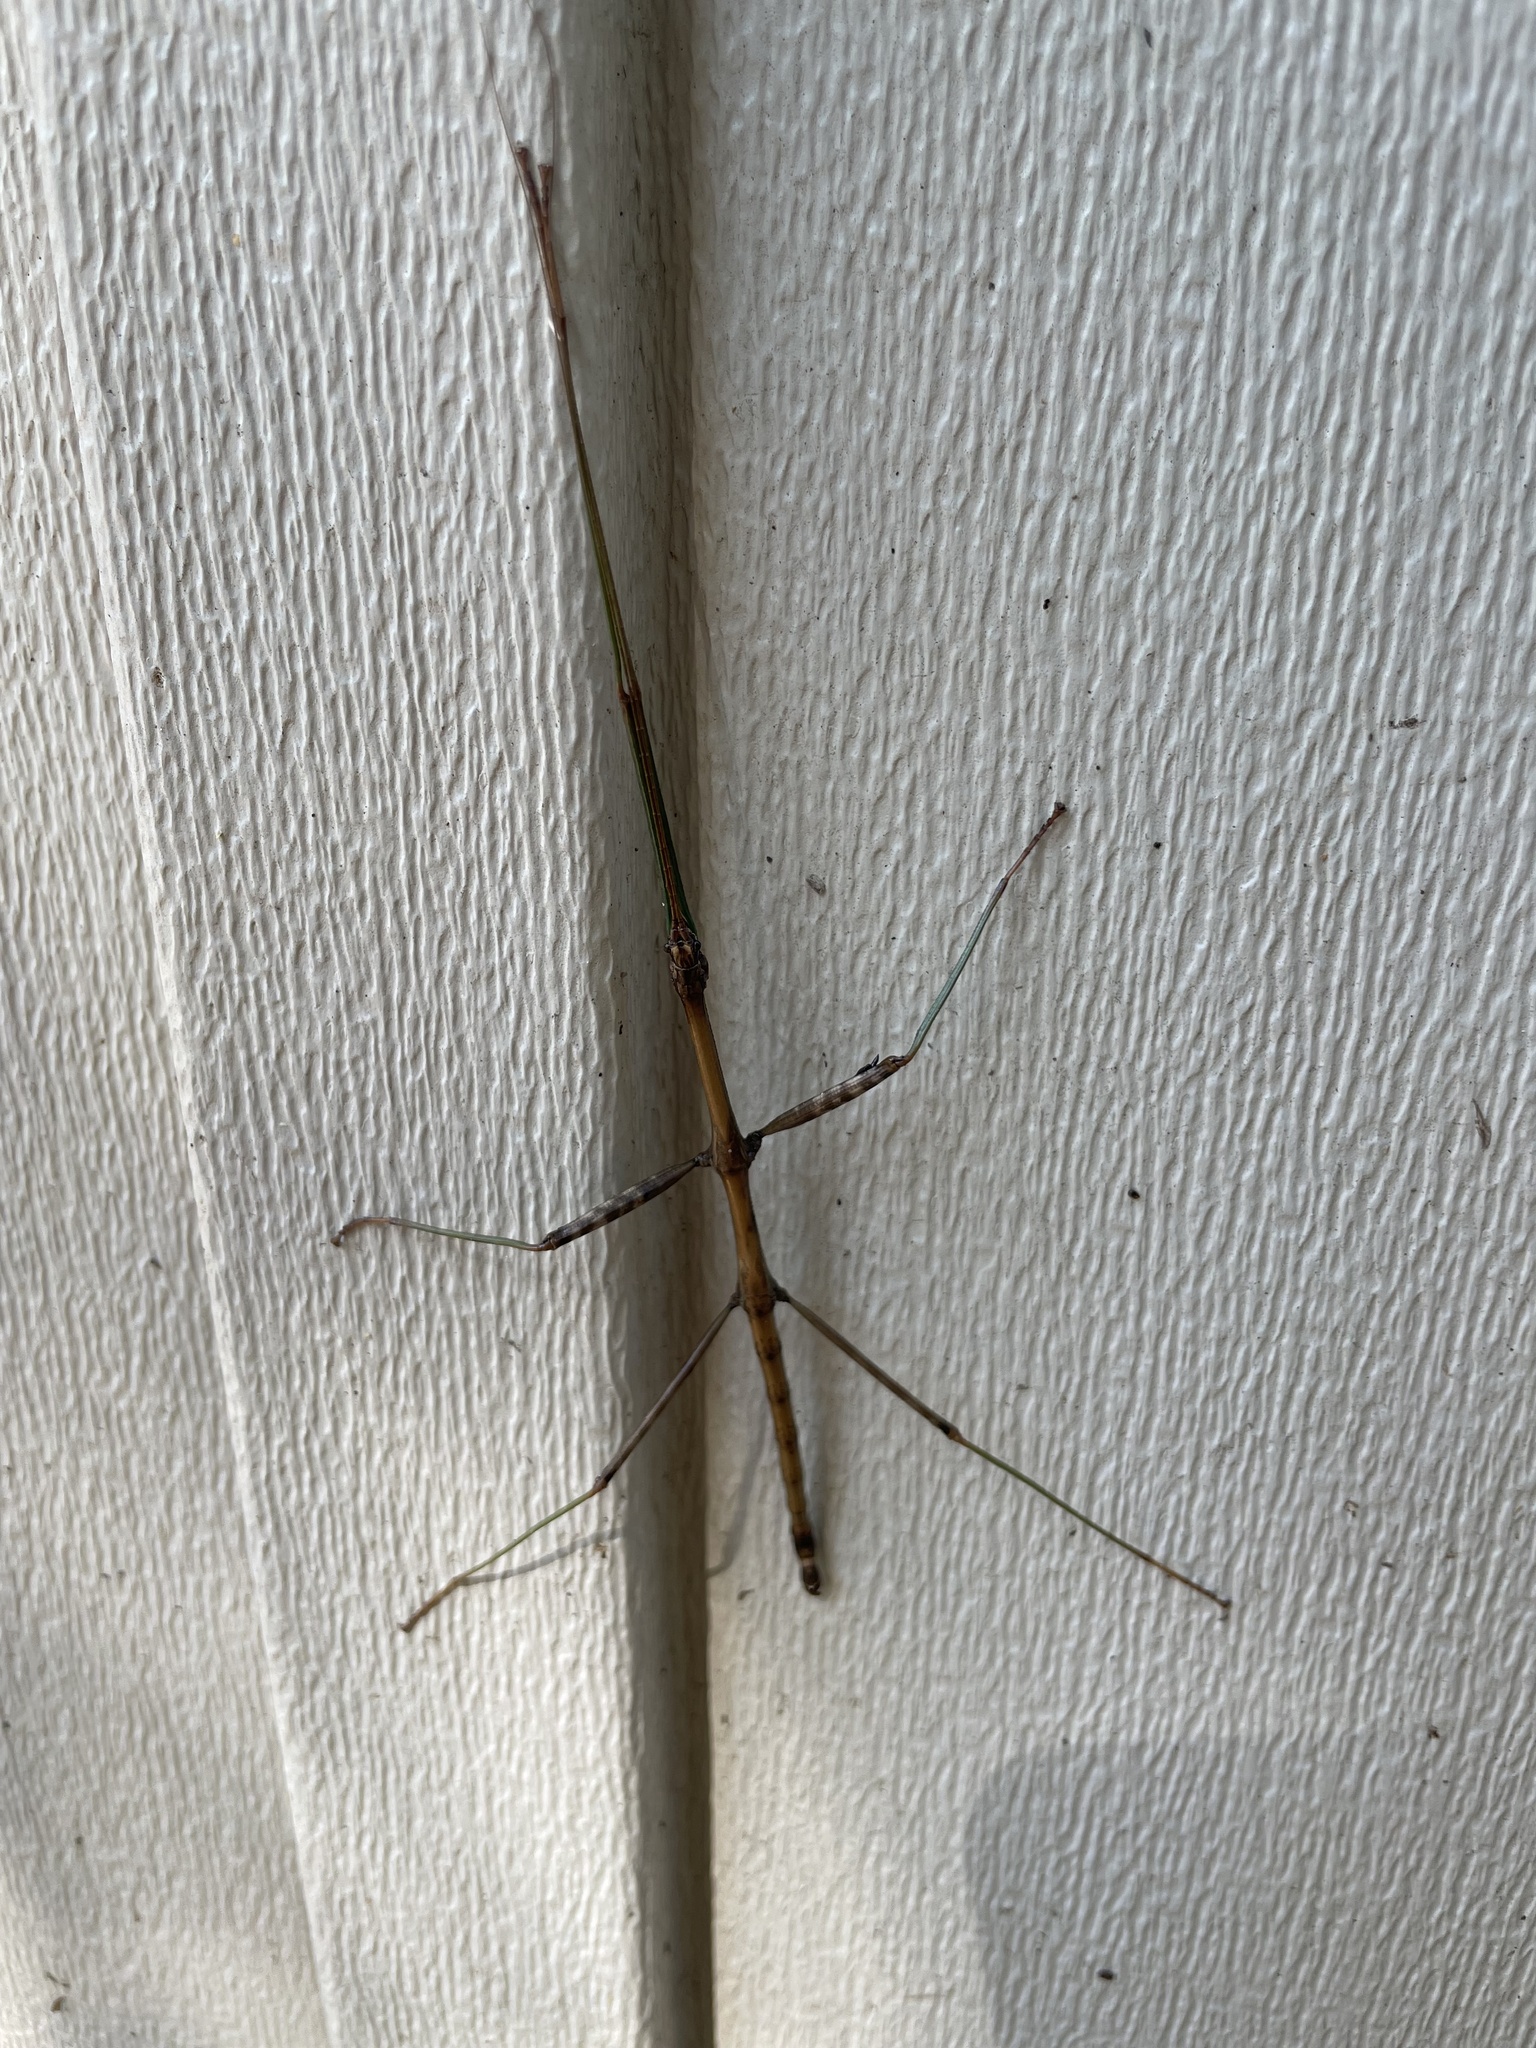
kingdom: Animalia
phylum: Arthropoda
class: Insecta
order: Phasmida
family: Diapheromeridae
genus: Diapheromera
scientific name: Diapheromera femorata
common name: Common american walkingstick
